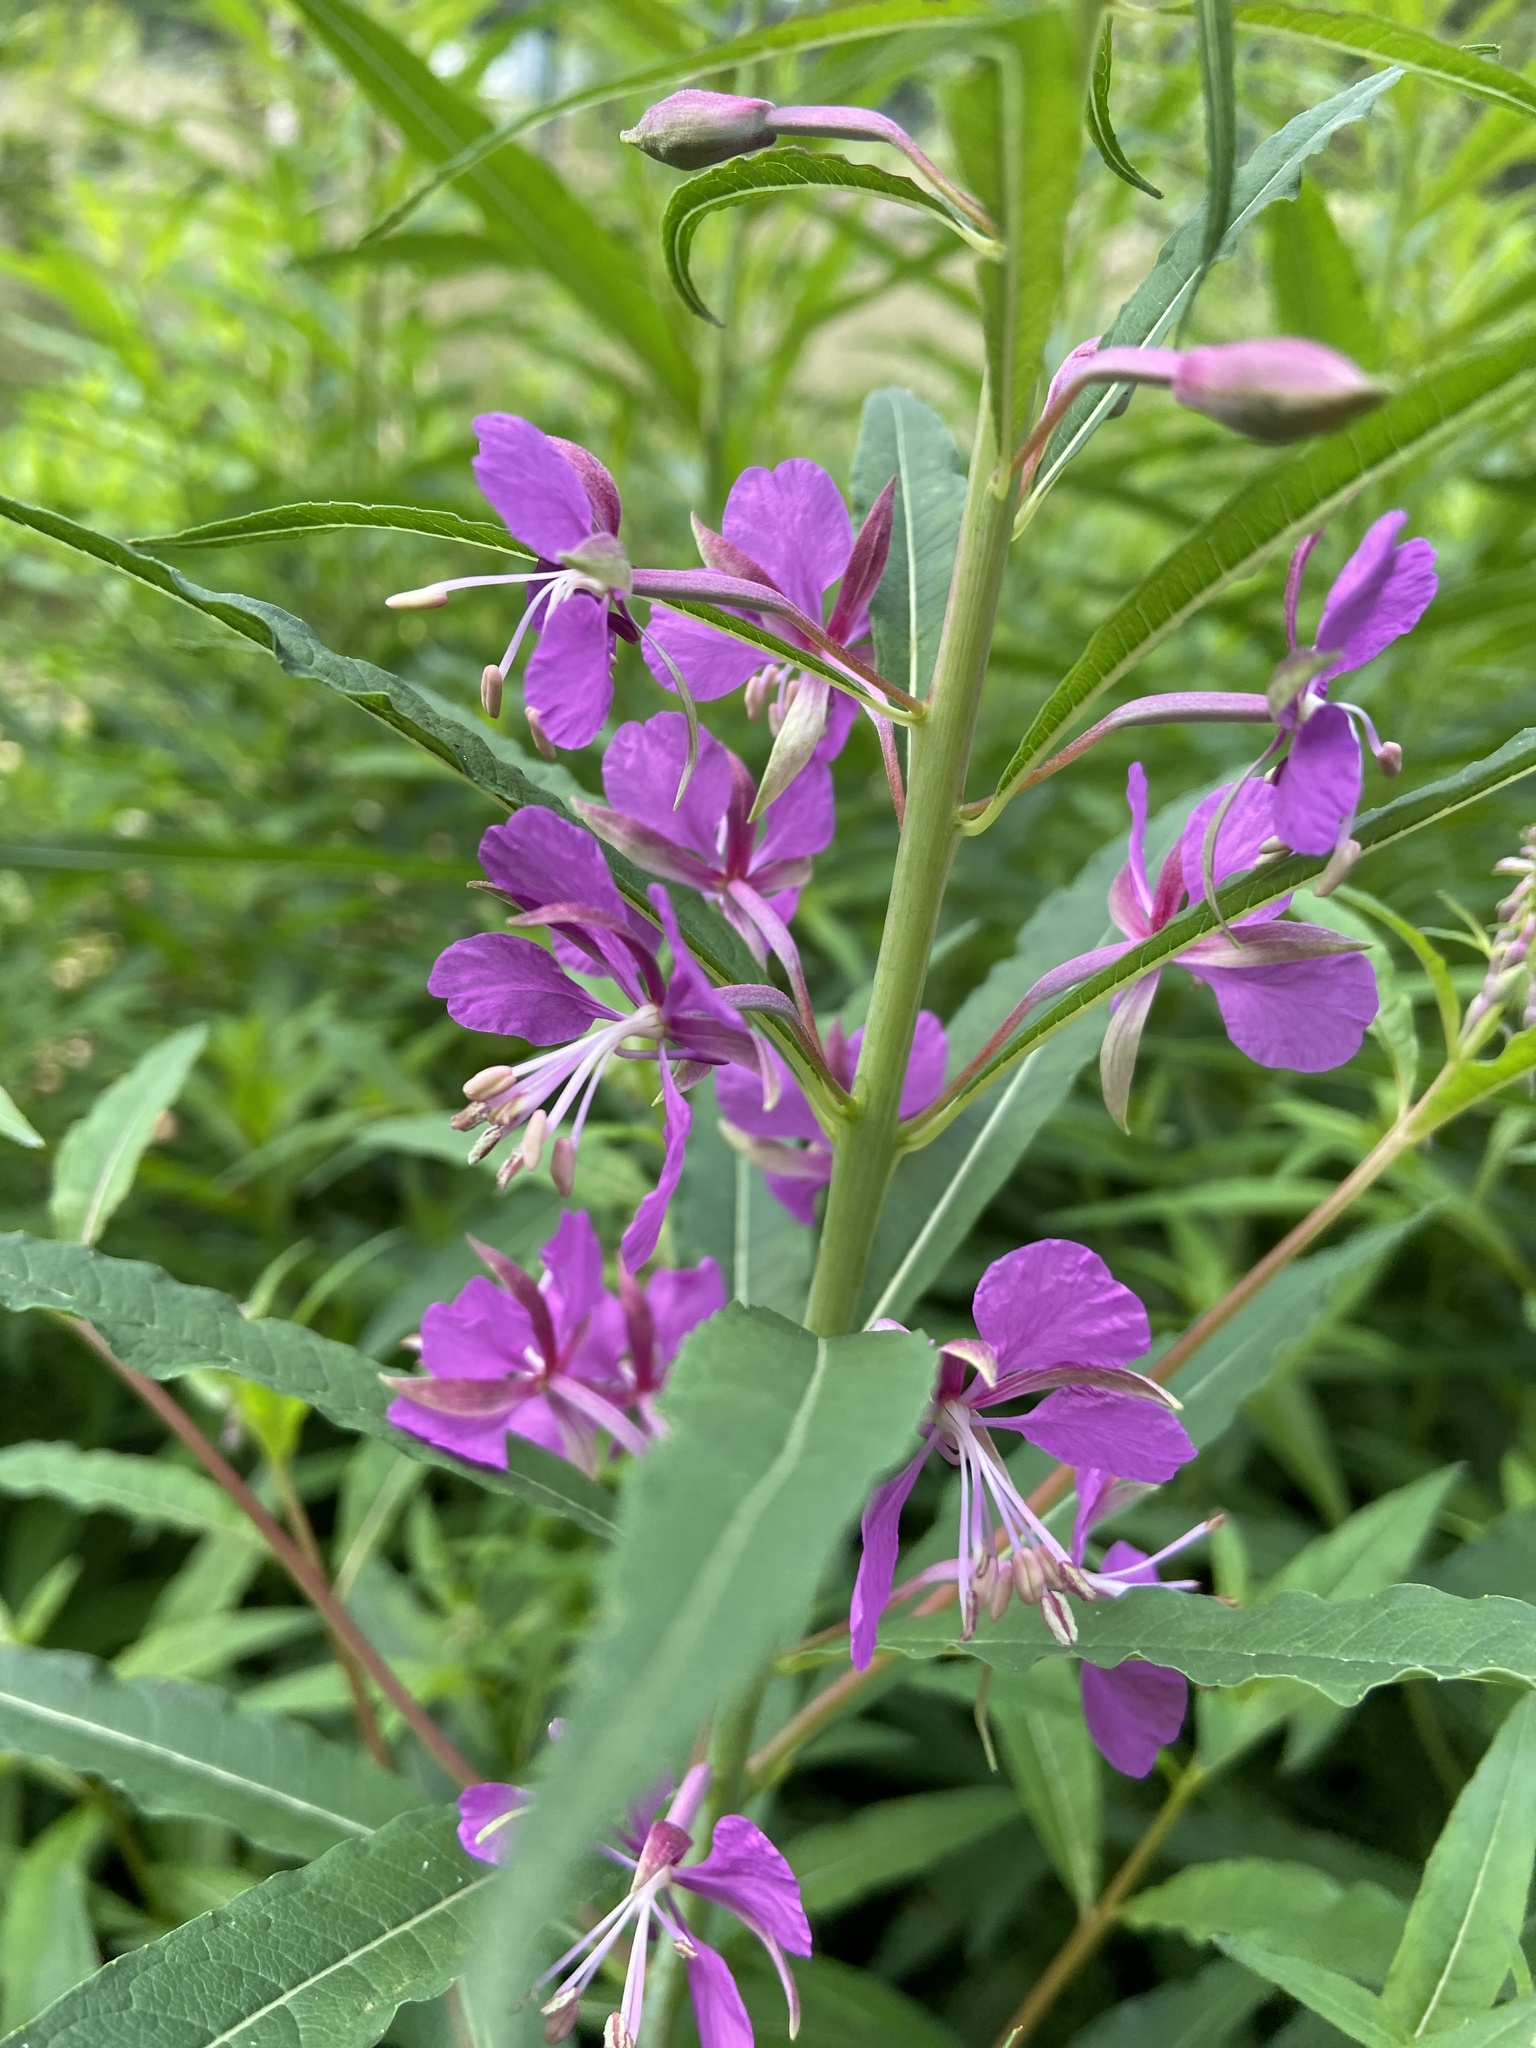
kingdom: Plantae
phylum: Tracheophyta
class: Magnoliopsida
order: Myrtales
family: Onagraceae
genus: Chamaenerion
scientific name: Chamaenerion angustifolium
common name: Fireweed
